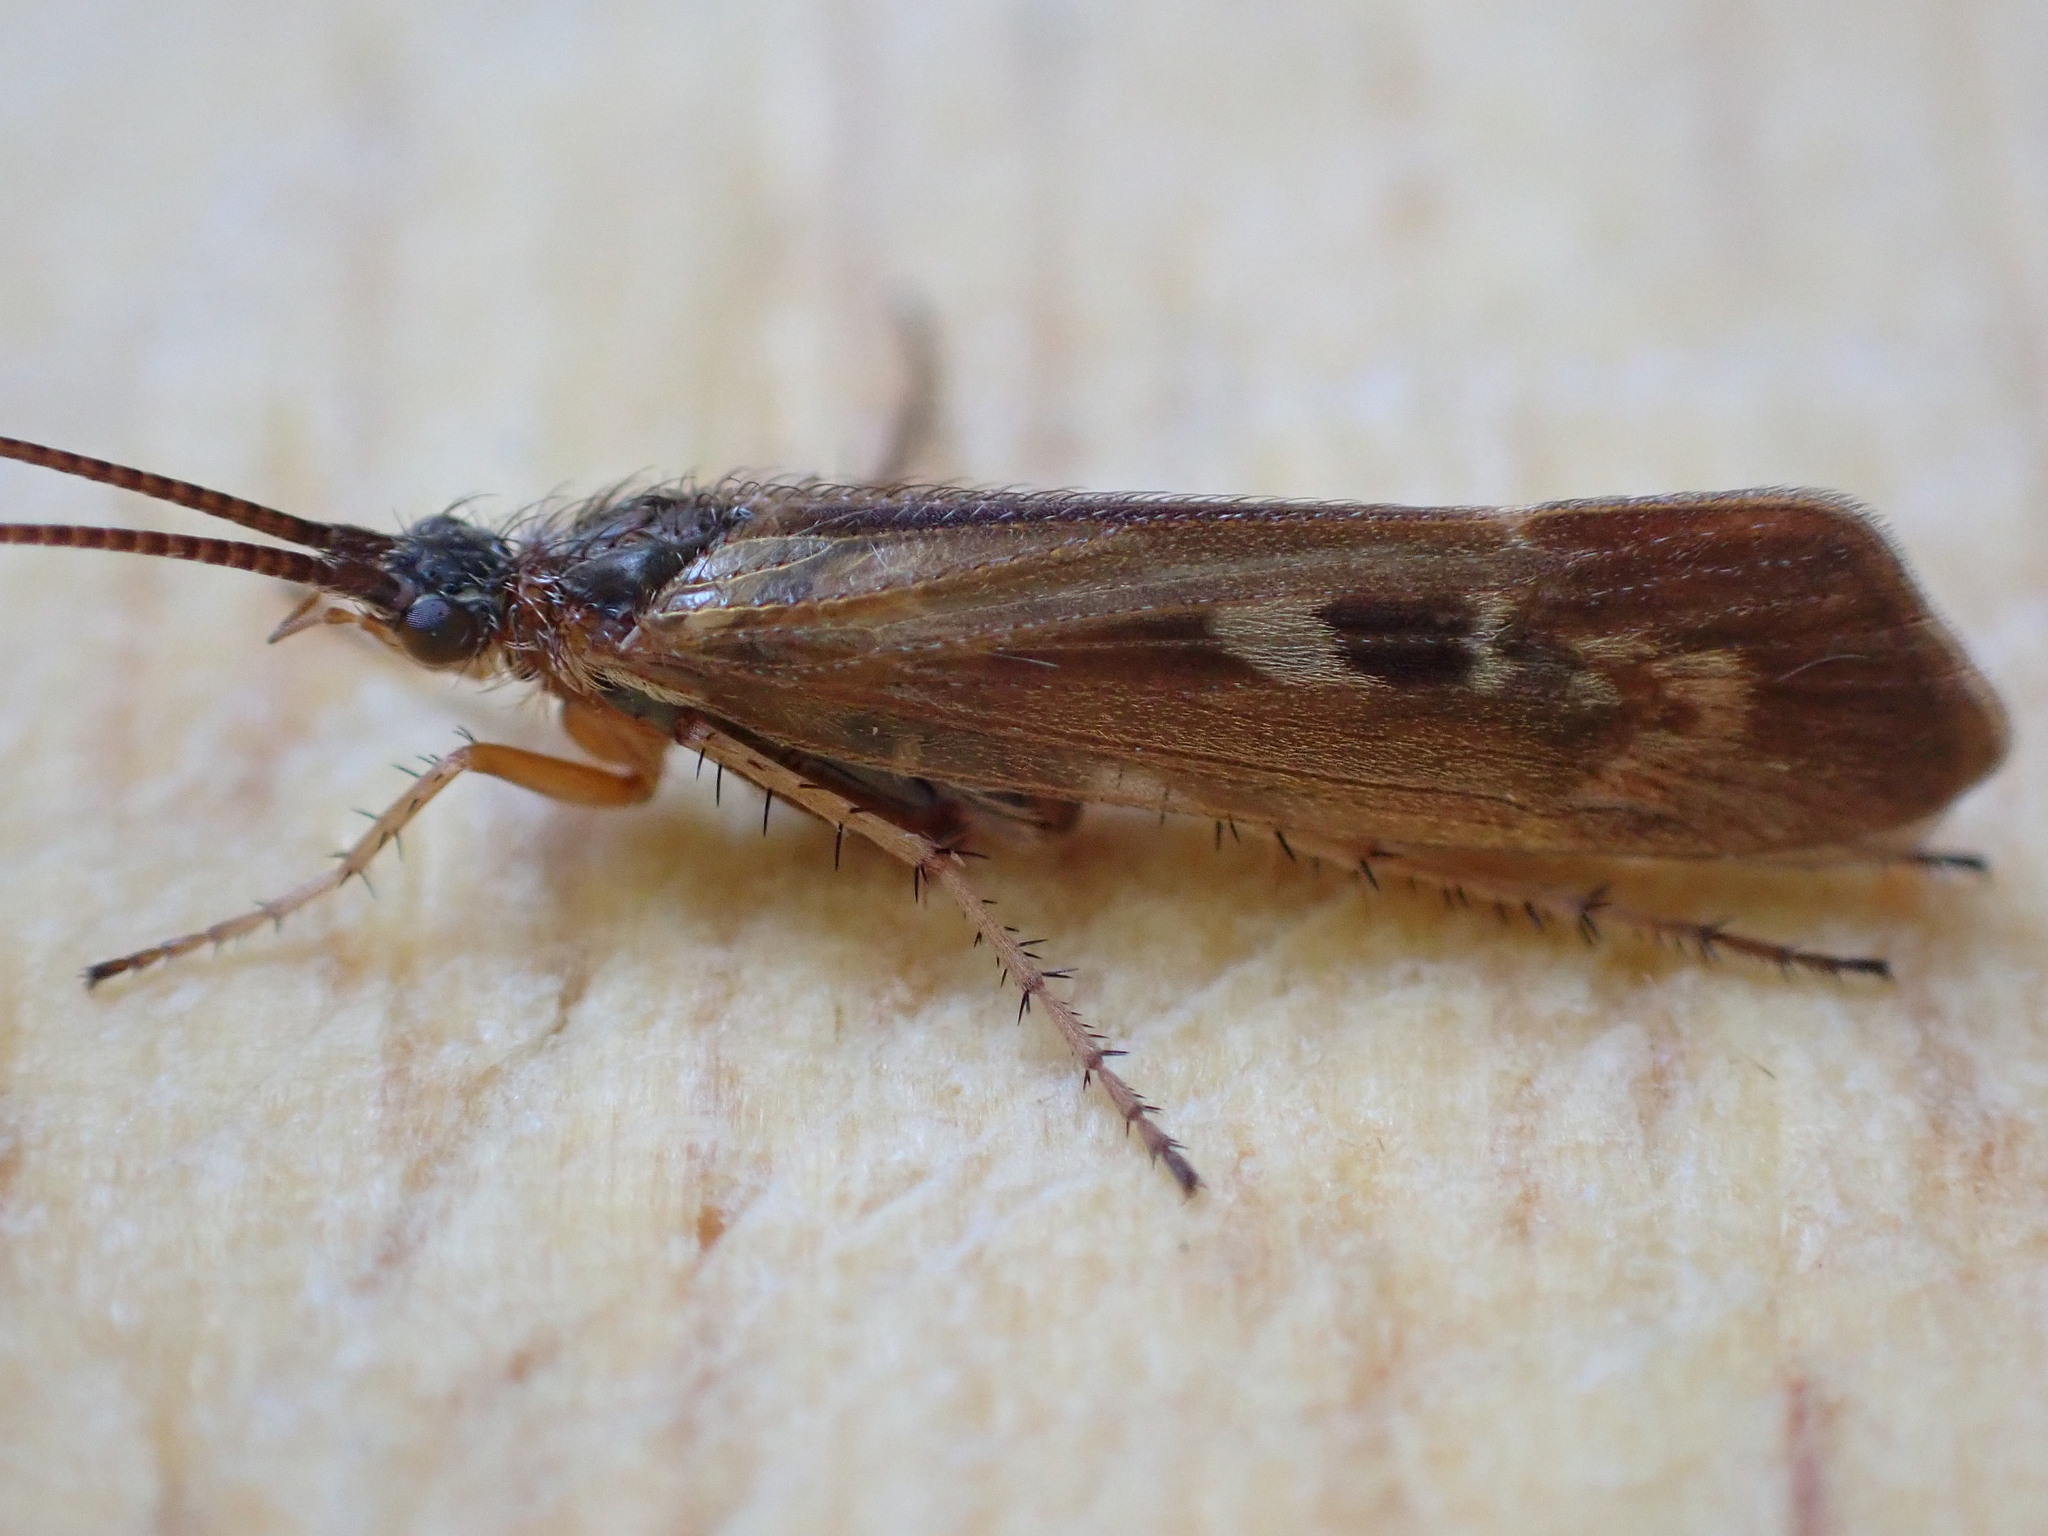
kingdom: Animalia
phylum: Arthropoda
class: Insecta
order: Trichoptera
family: Limnephilidae
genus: Limnephilus
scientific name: Limnephilus auricula
